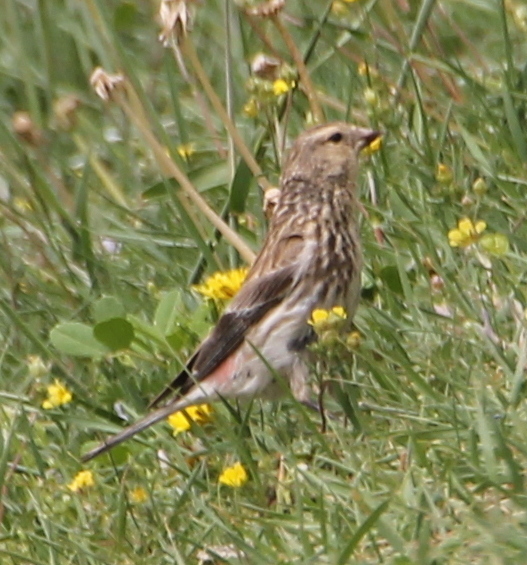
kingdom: Animalia
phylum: Chordata
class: Aves
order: Passeriformes
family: Fringillidae
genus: Linaria
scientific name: Linaria flavirostris
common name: Twite
